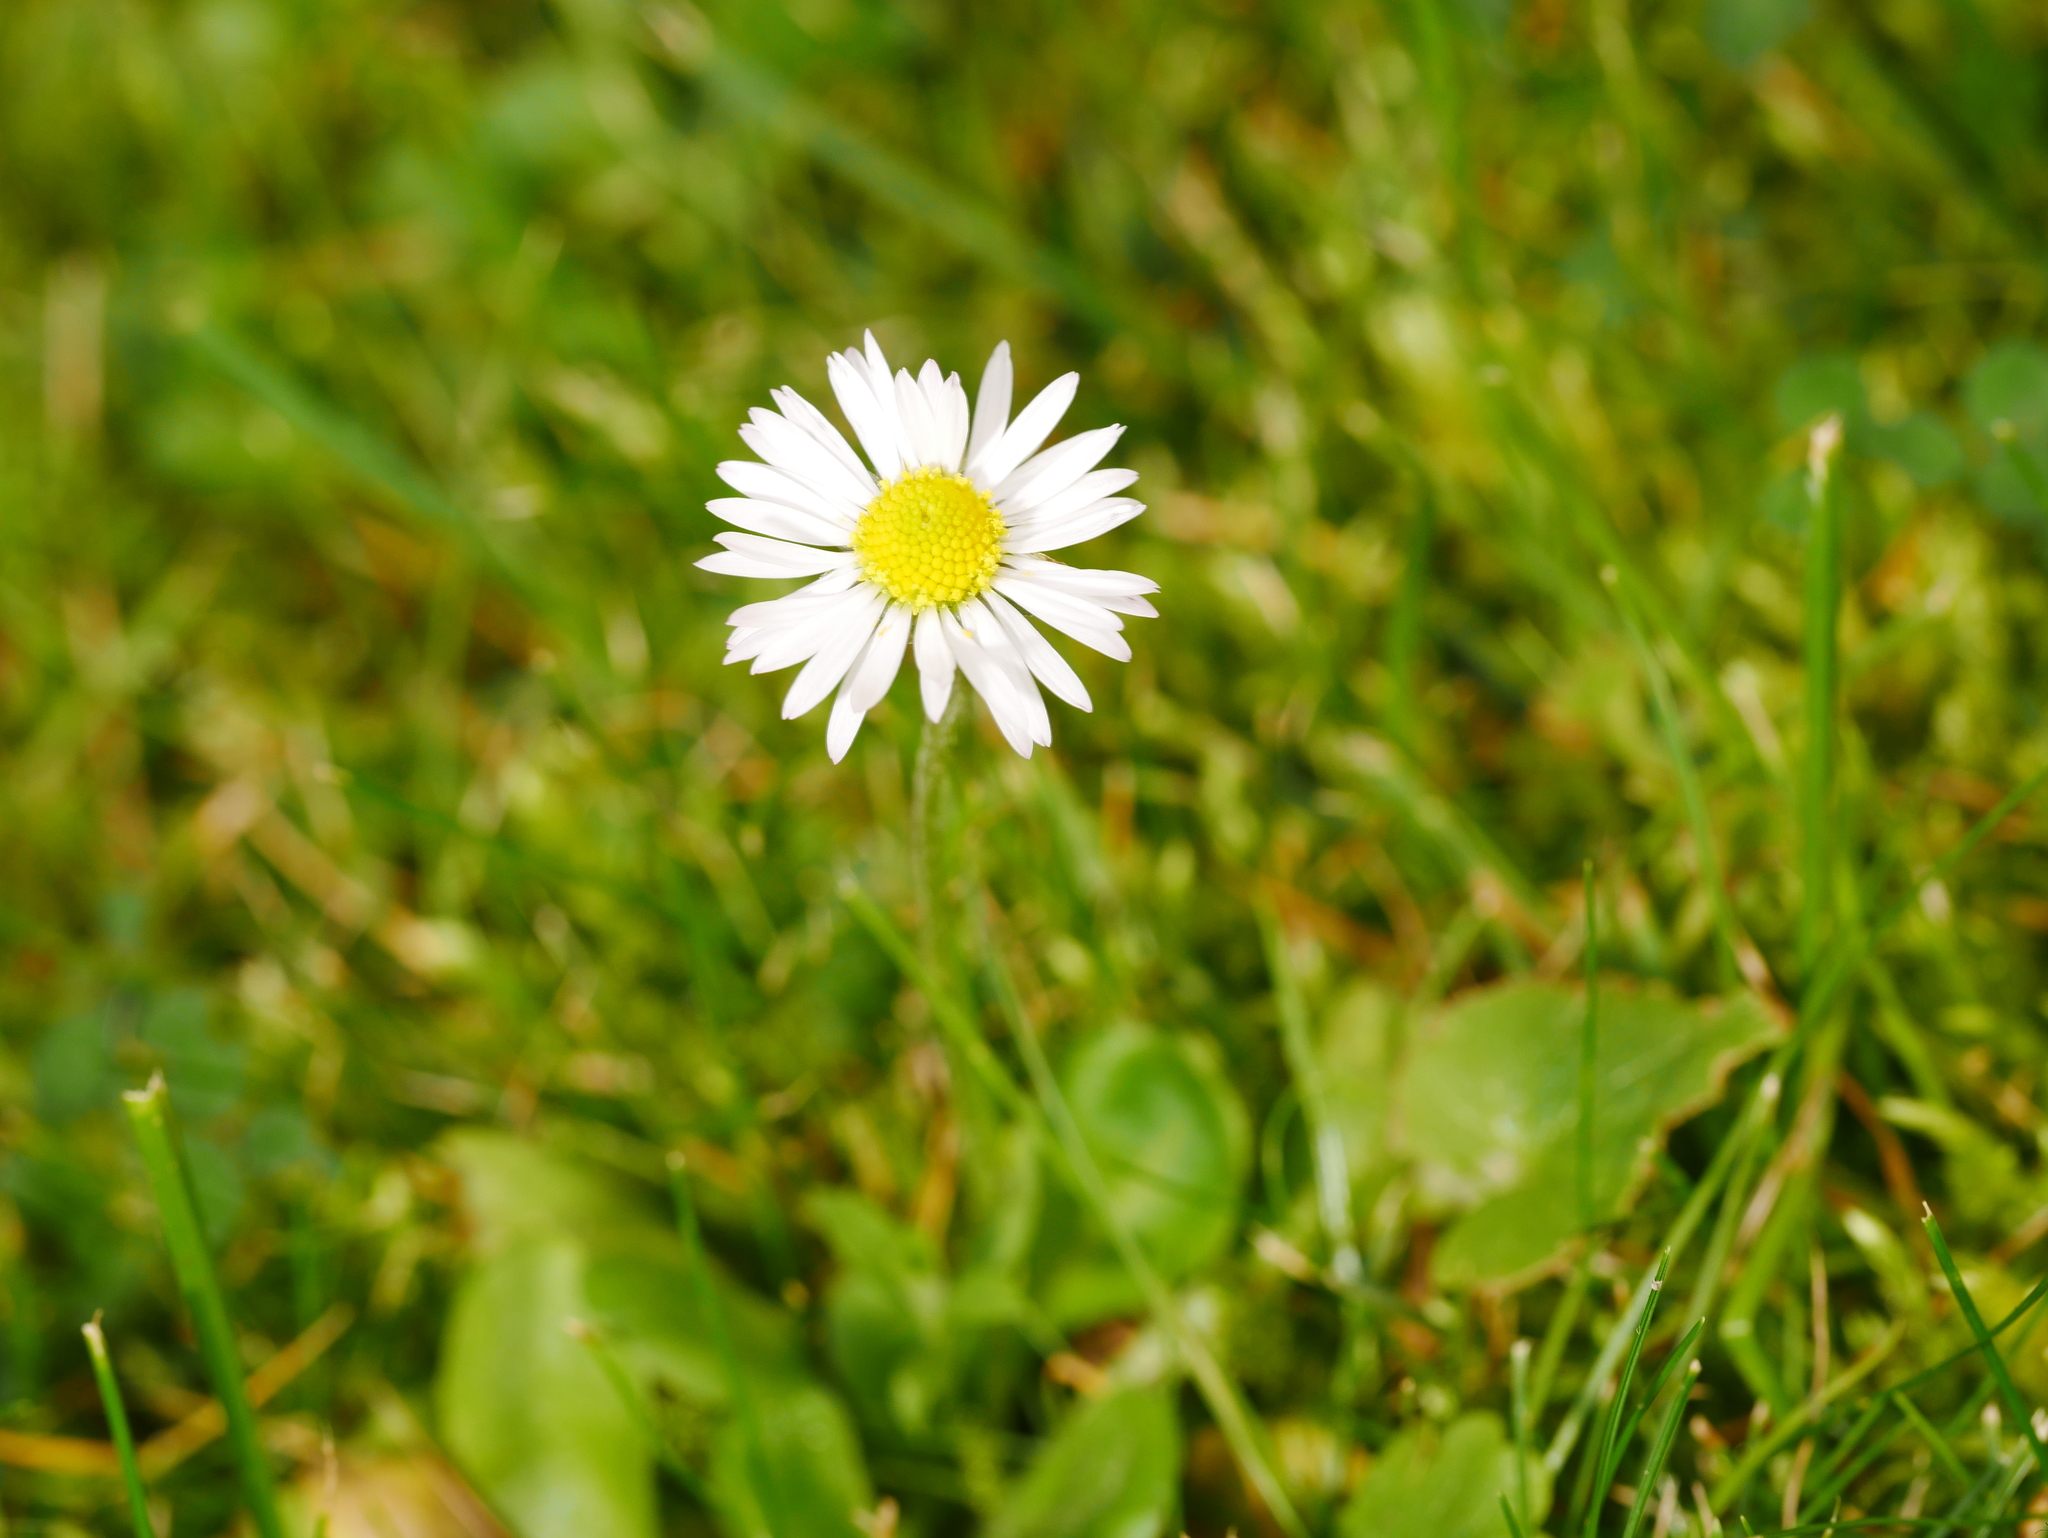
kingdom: Plantae
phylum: Tracheophyta
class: Magnoliopsida
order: Asterales
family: Asteraceae
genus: Bellis
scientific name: Bellis perennis
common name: Lawndaisy
